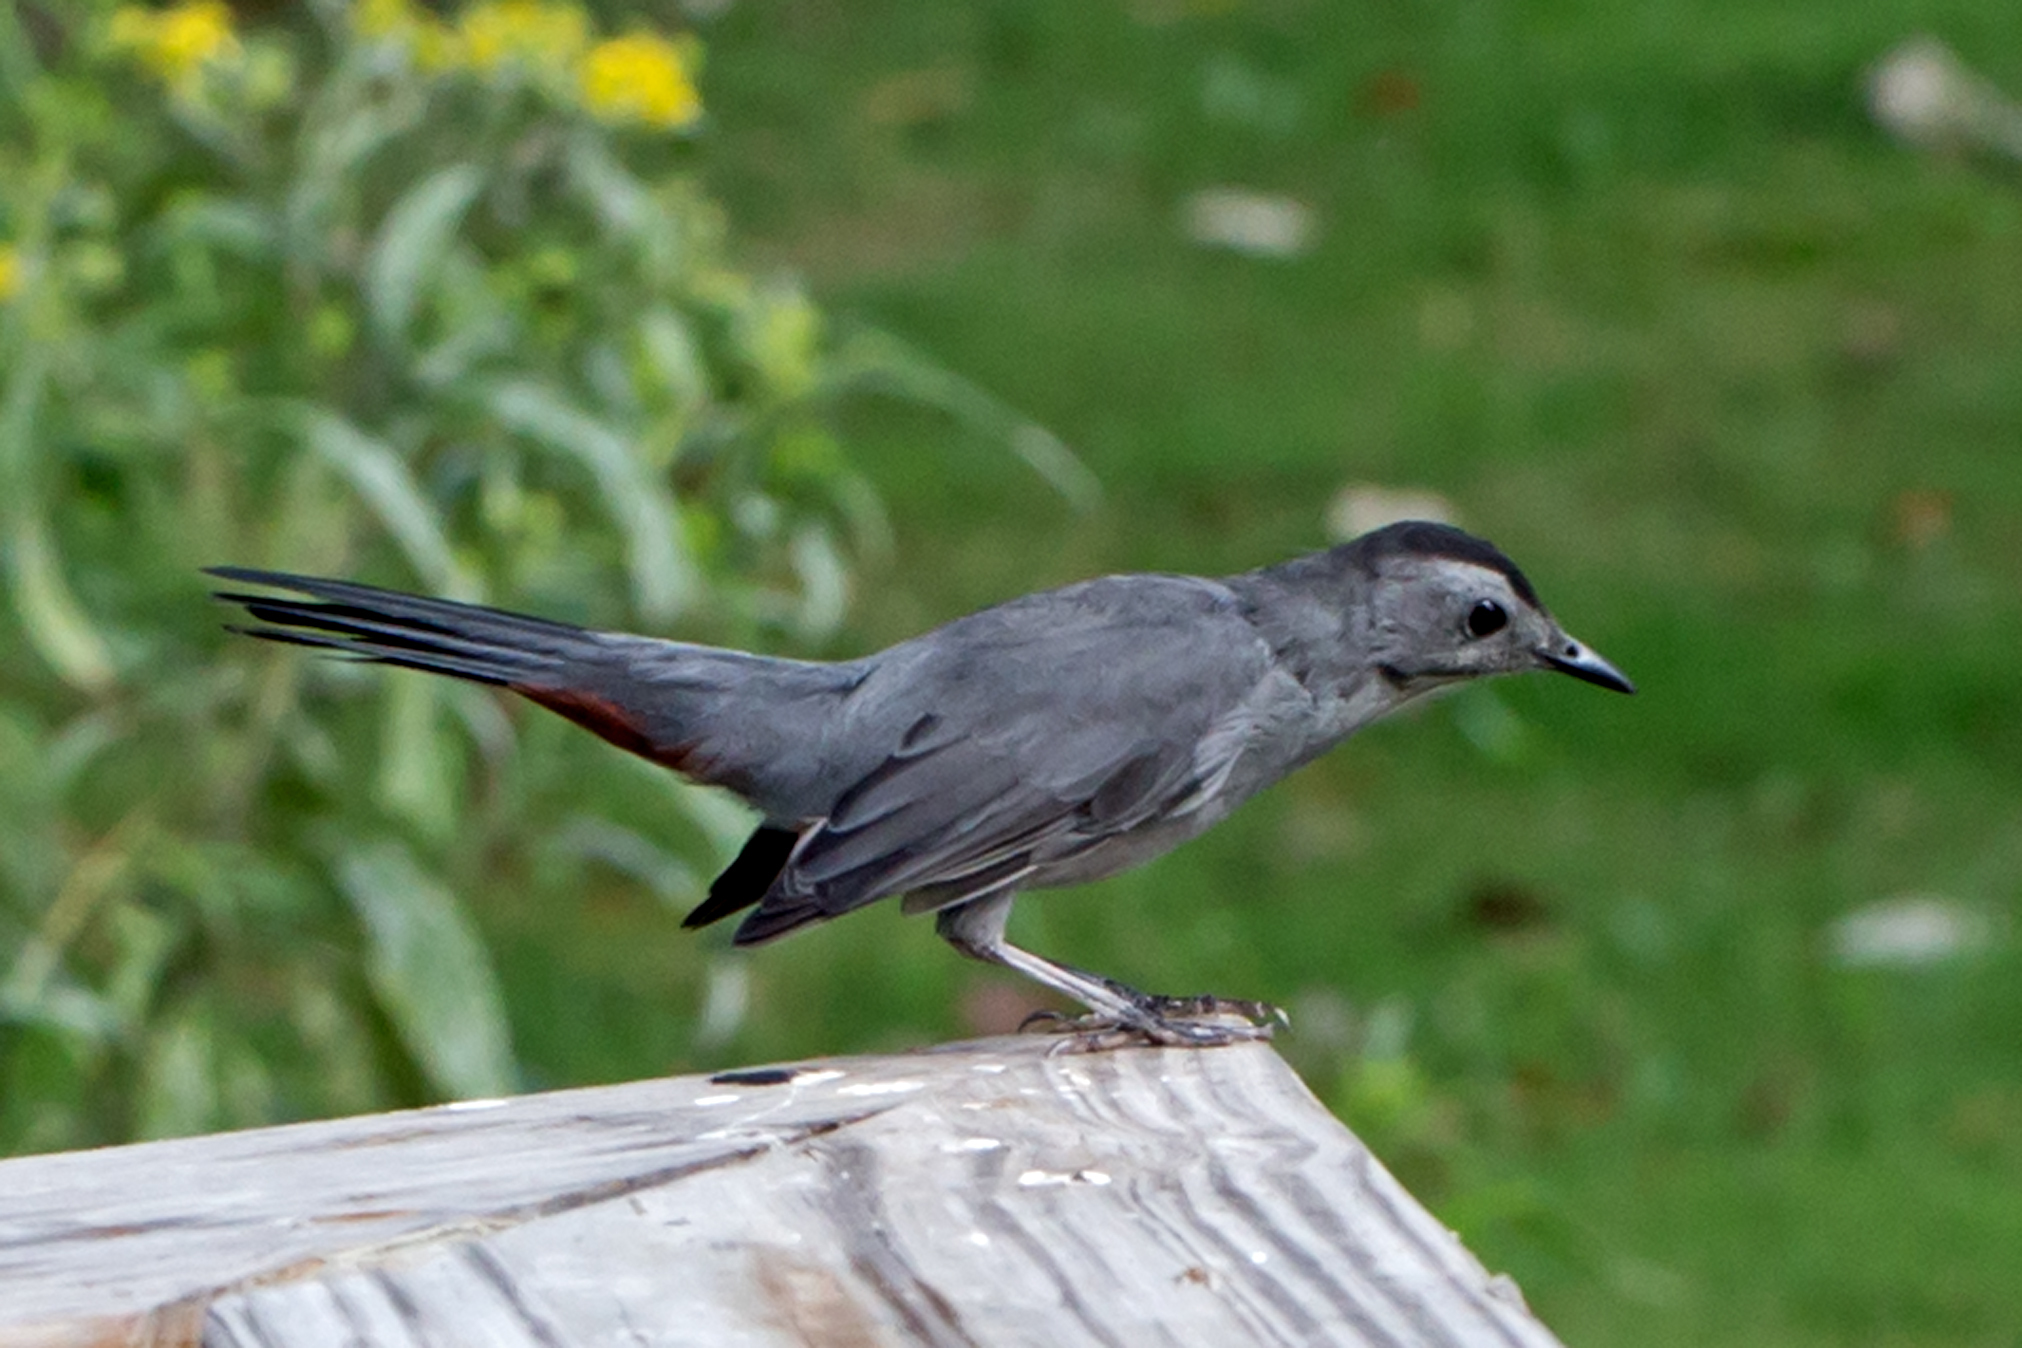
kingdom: Animalia
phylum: Chordata
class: Aves
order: Passeriformes
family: Mimidae
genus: Dumetella
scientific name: Dumetella carolinensis
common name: Gray catbird
